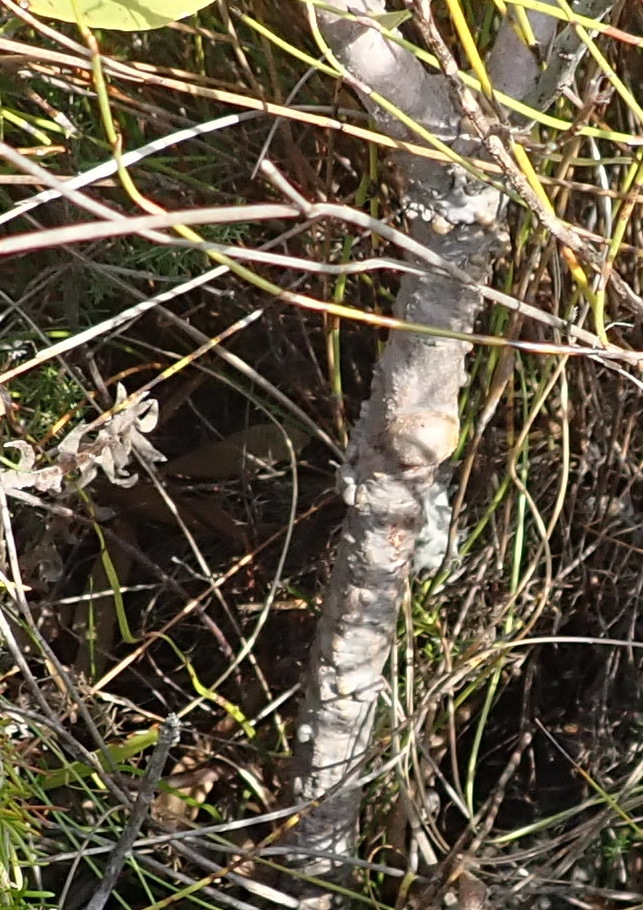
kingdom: Plantae
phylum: Tracheophyta
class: Magnoliopsida
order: Proteales
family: Proteaceae
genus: Leucospermum
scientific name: Leucospermum cuneiforme
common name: Common pincushion
